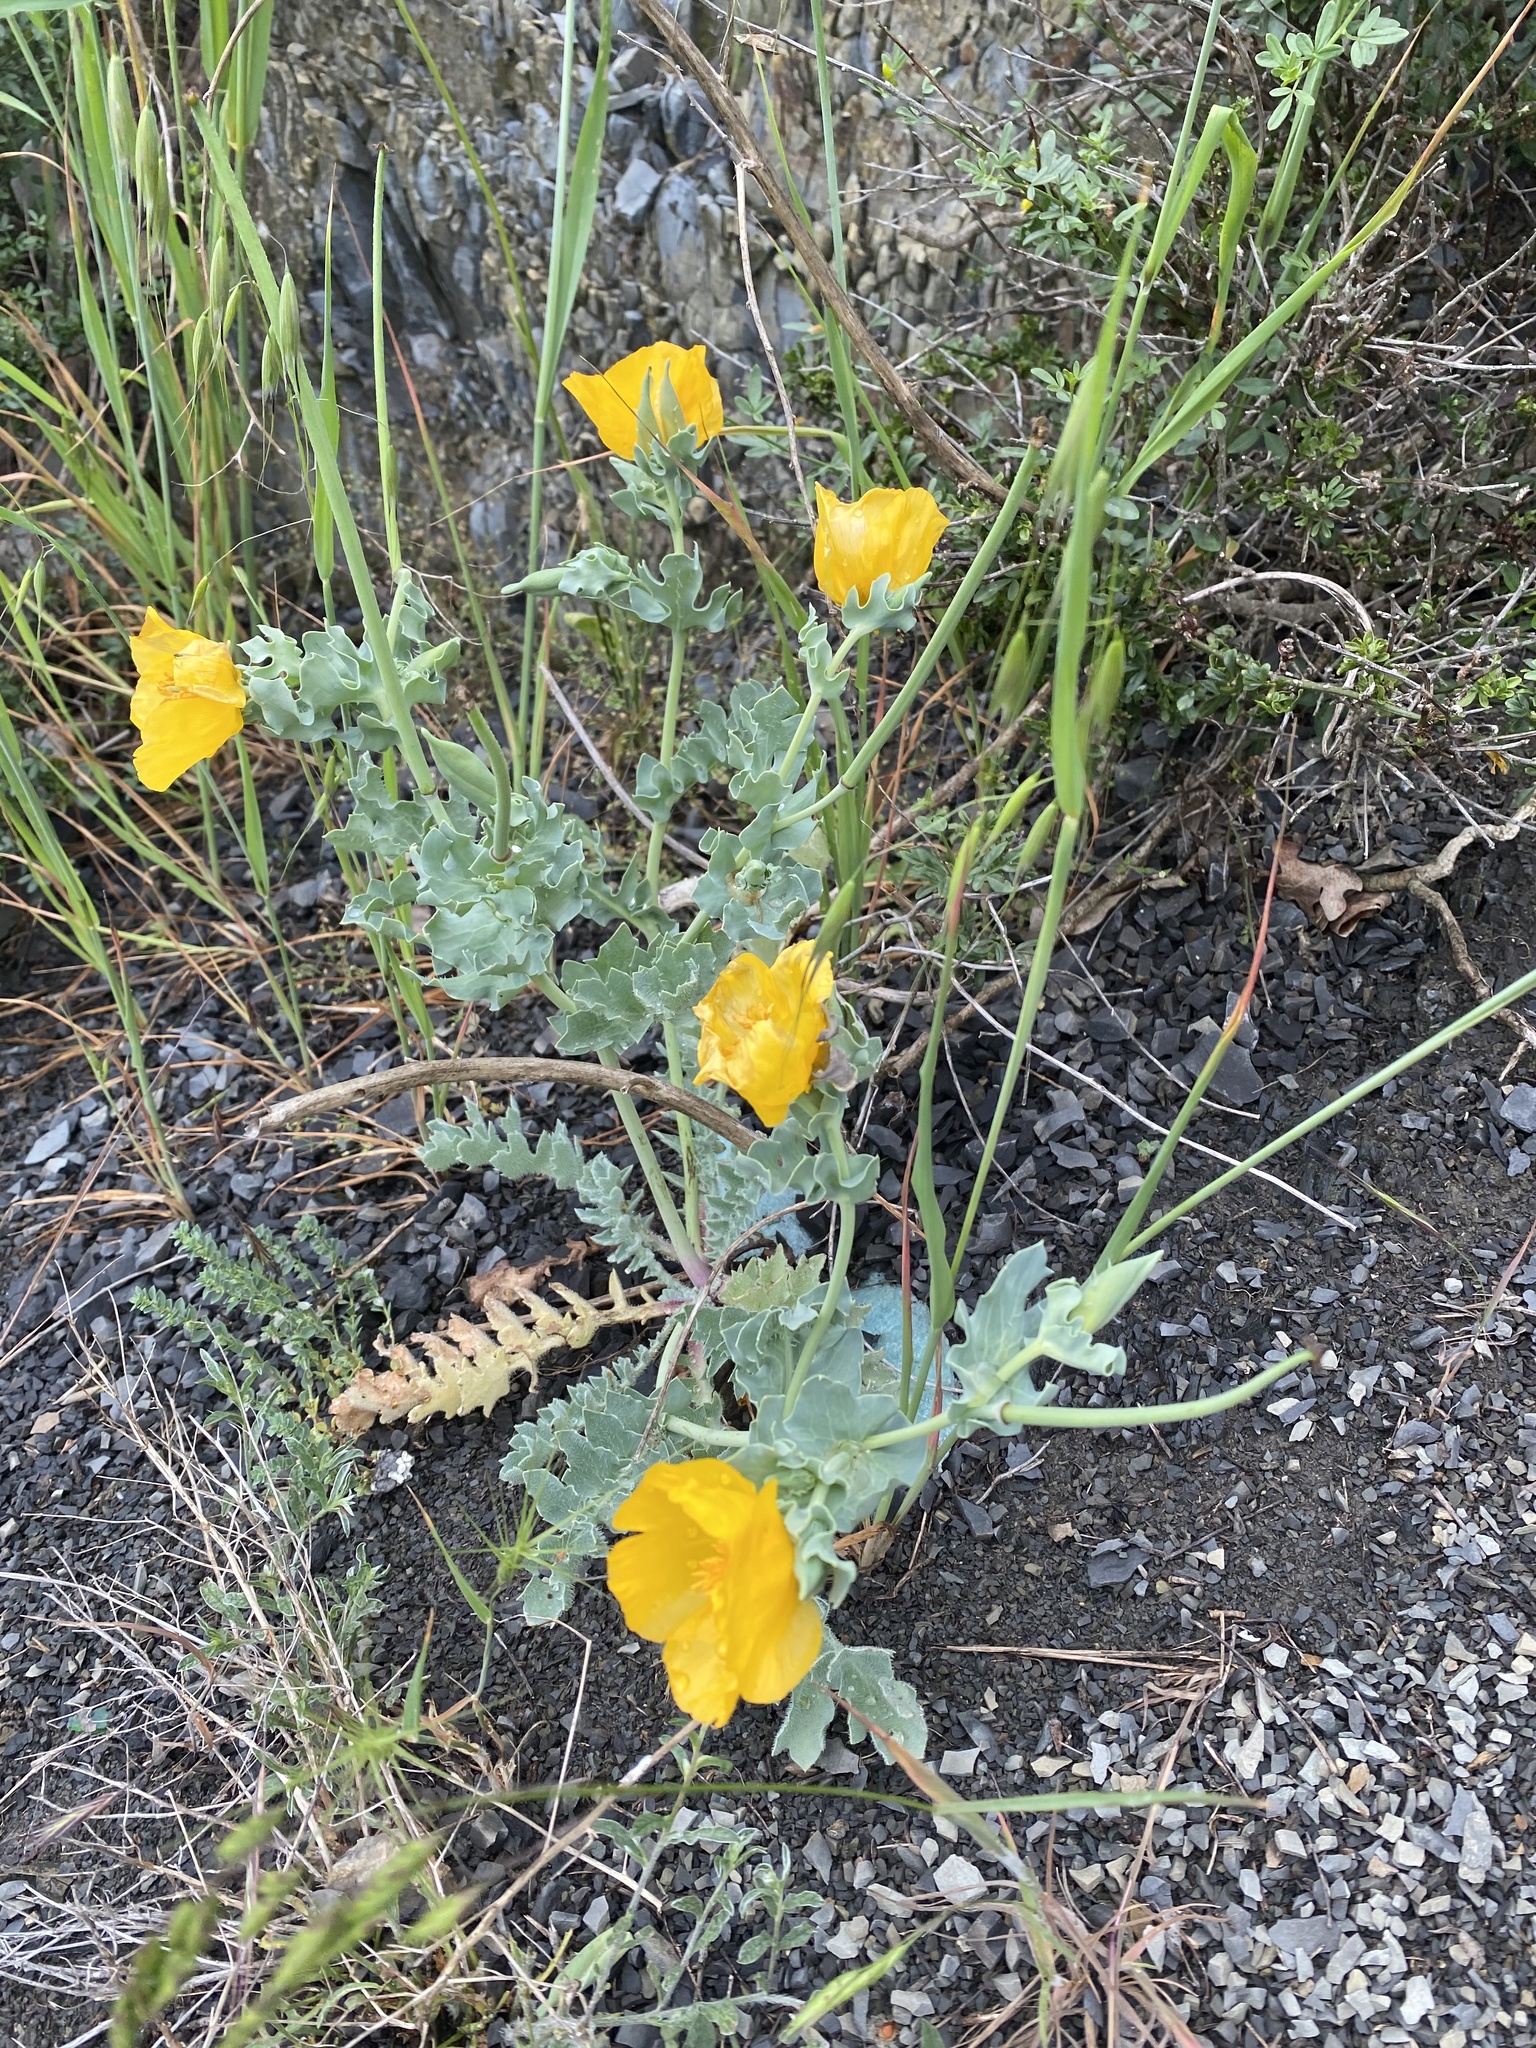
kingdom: Plantae
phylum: Tracheophyta
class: Magnoliopsida
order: Ranunculales
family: Papaveraceae
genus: Glaucium
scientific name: Glaucium flavum
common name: Yellow horned-poppy
